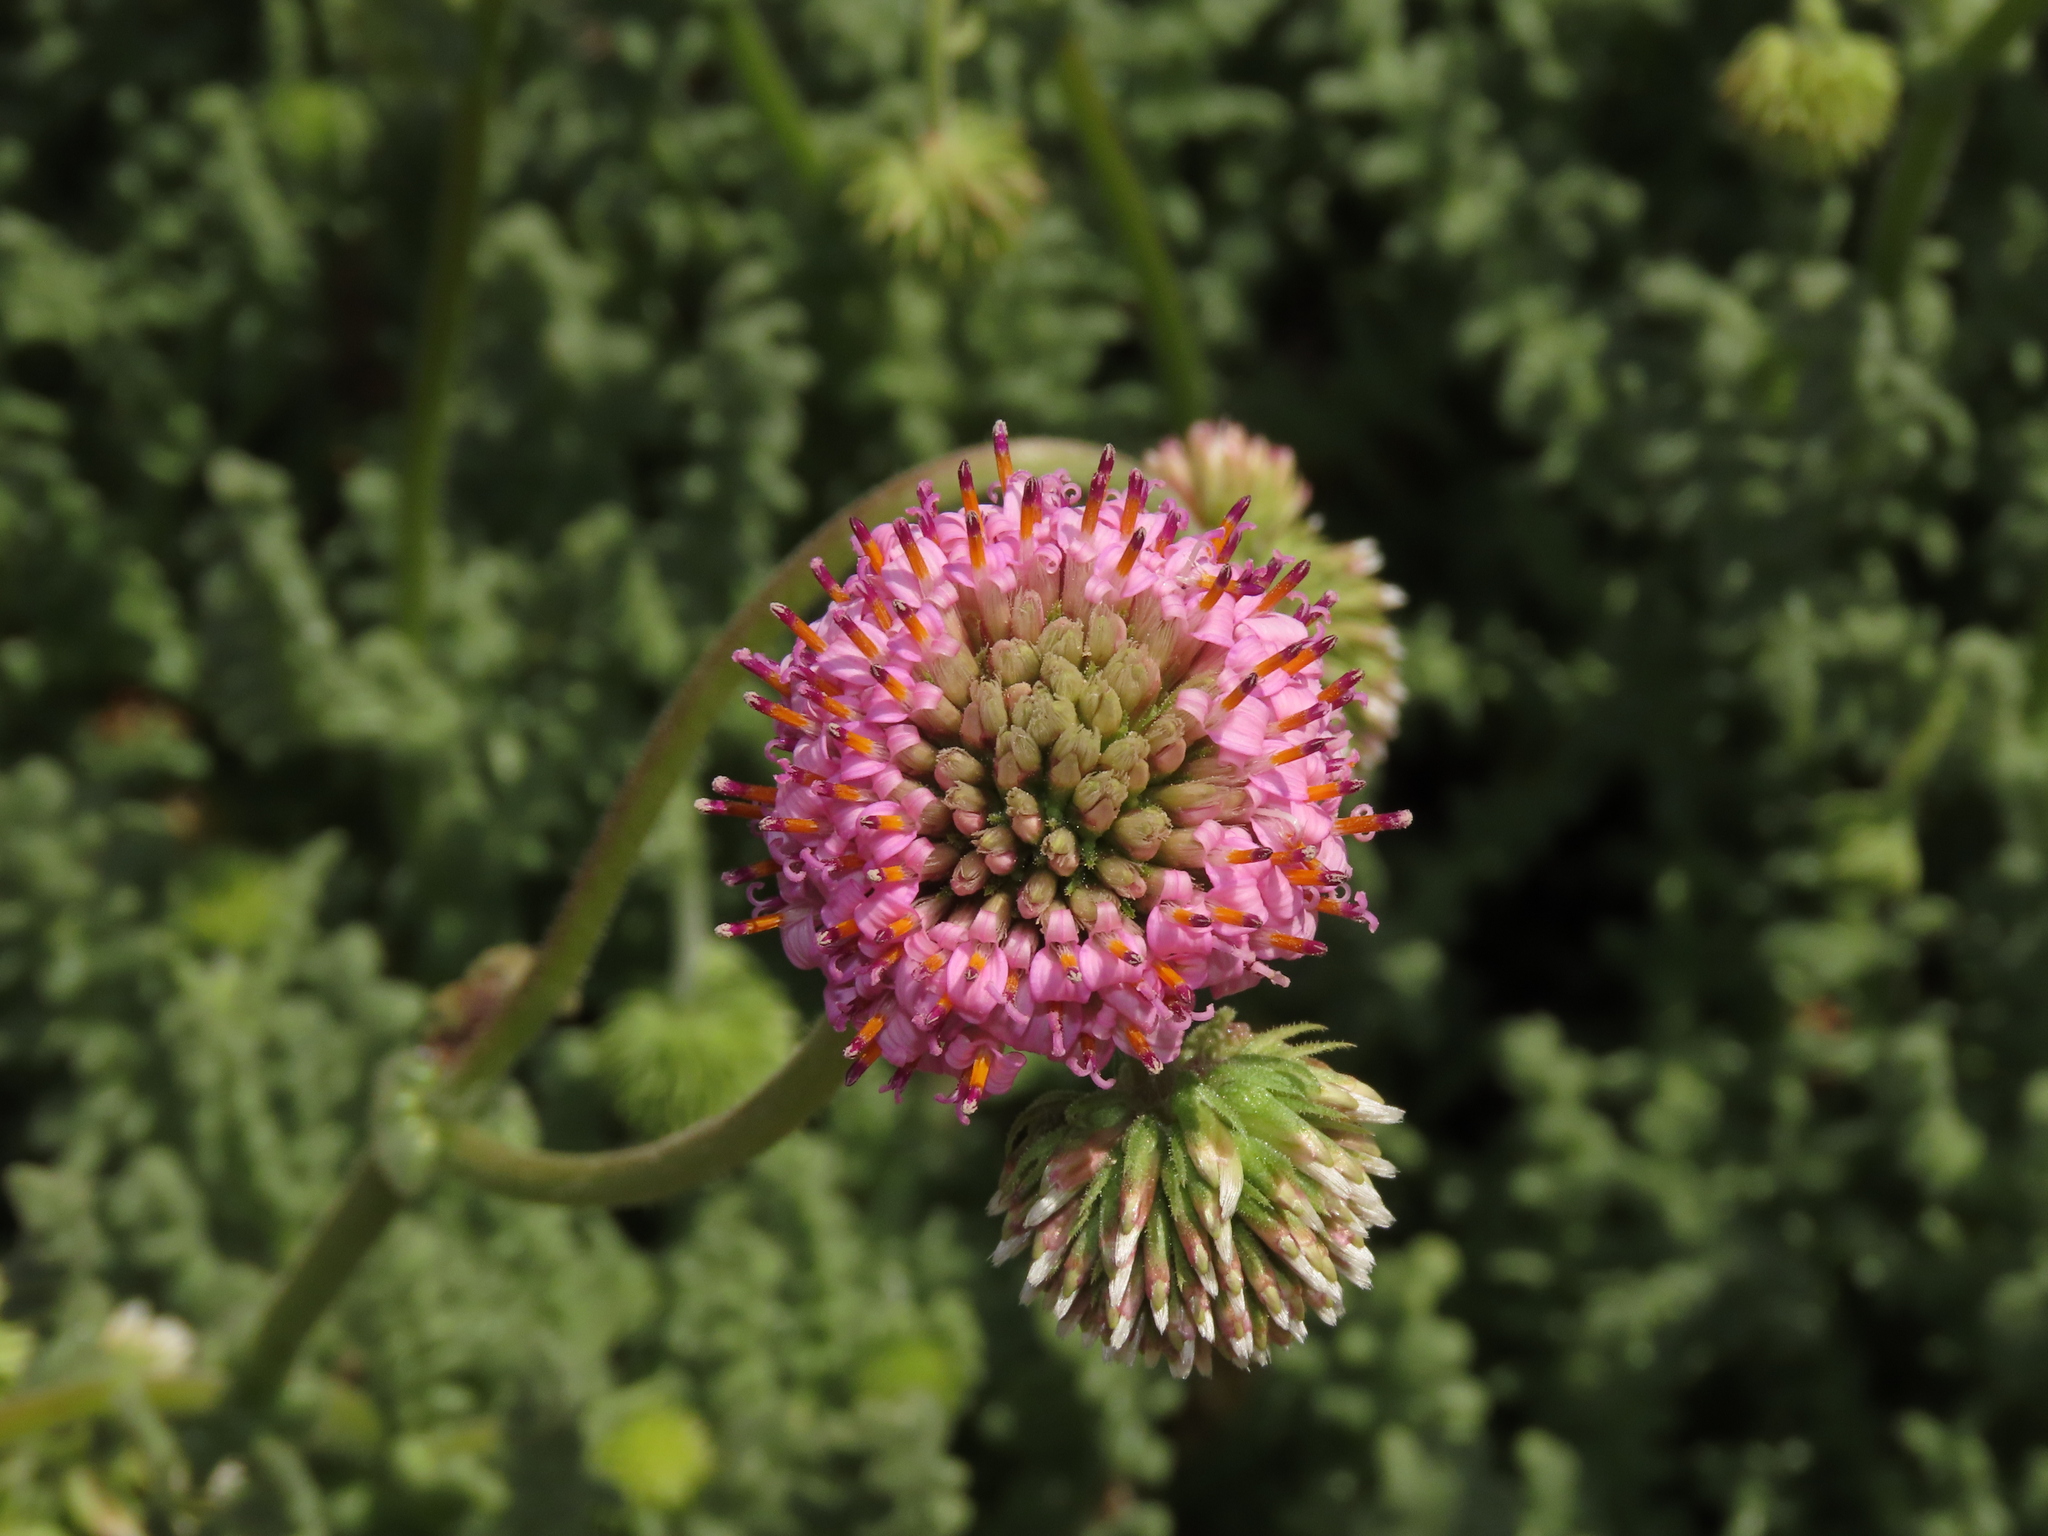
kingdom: Plantae
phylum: Tracheophyta
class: Magnoliopsida
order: Asterales
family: Asteraceae
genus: Polyachyrus
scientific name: Polyachyrus fuscus
